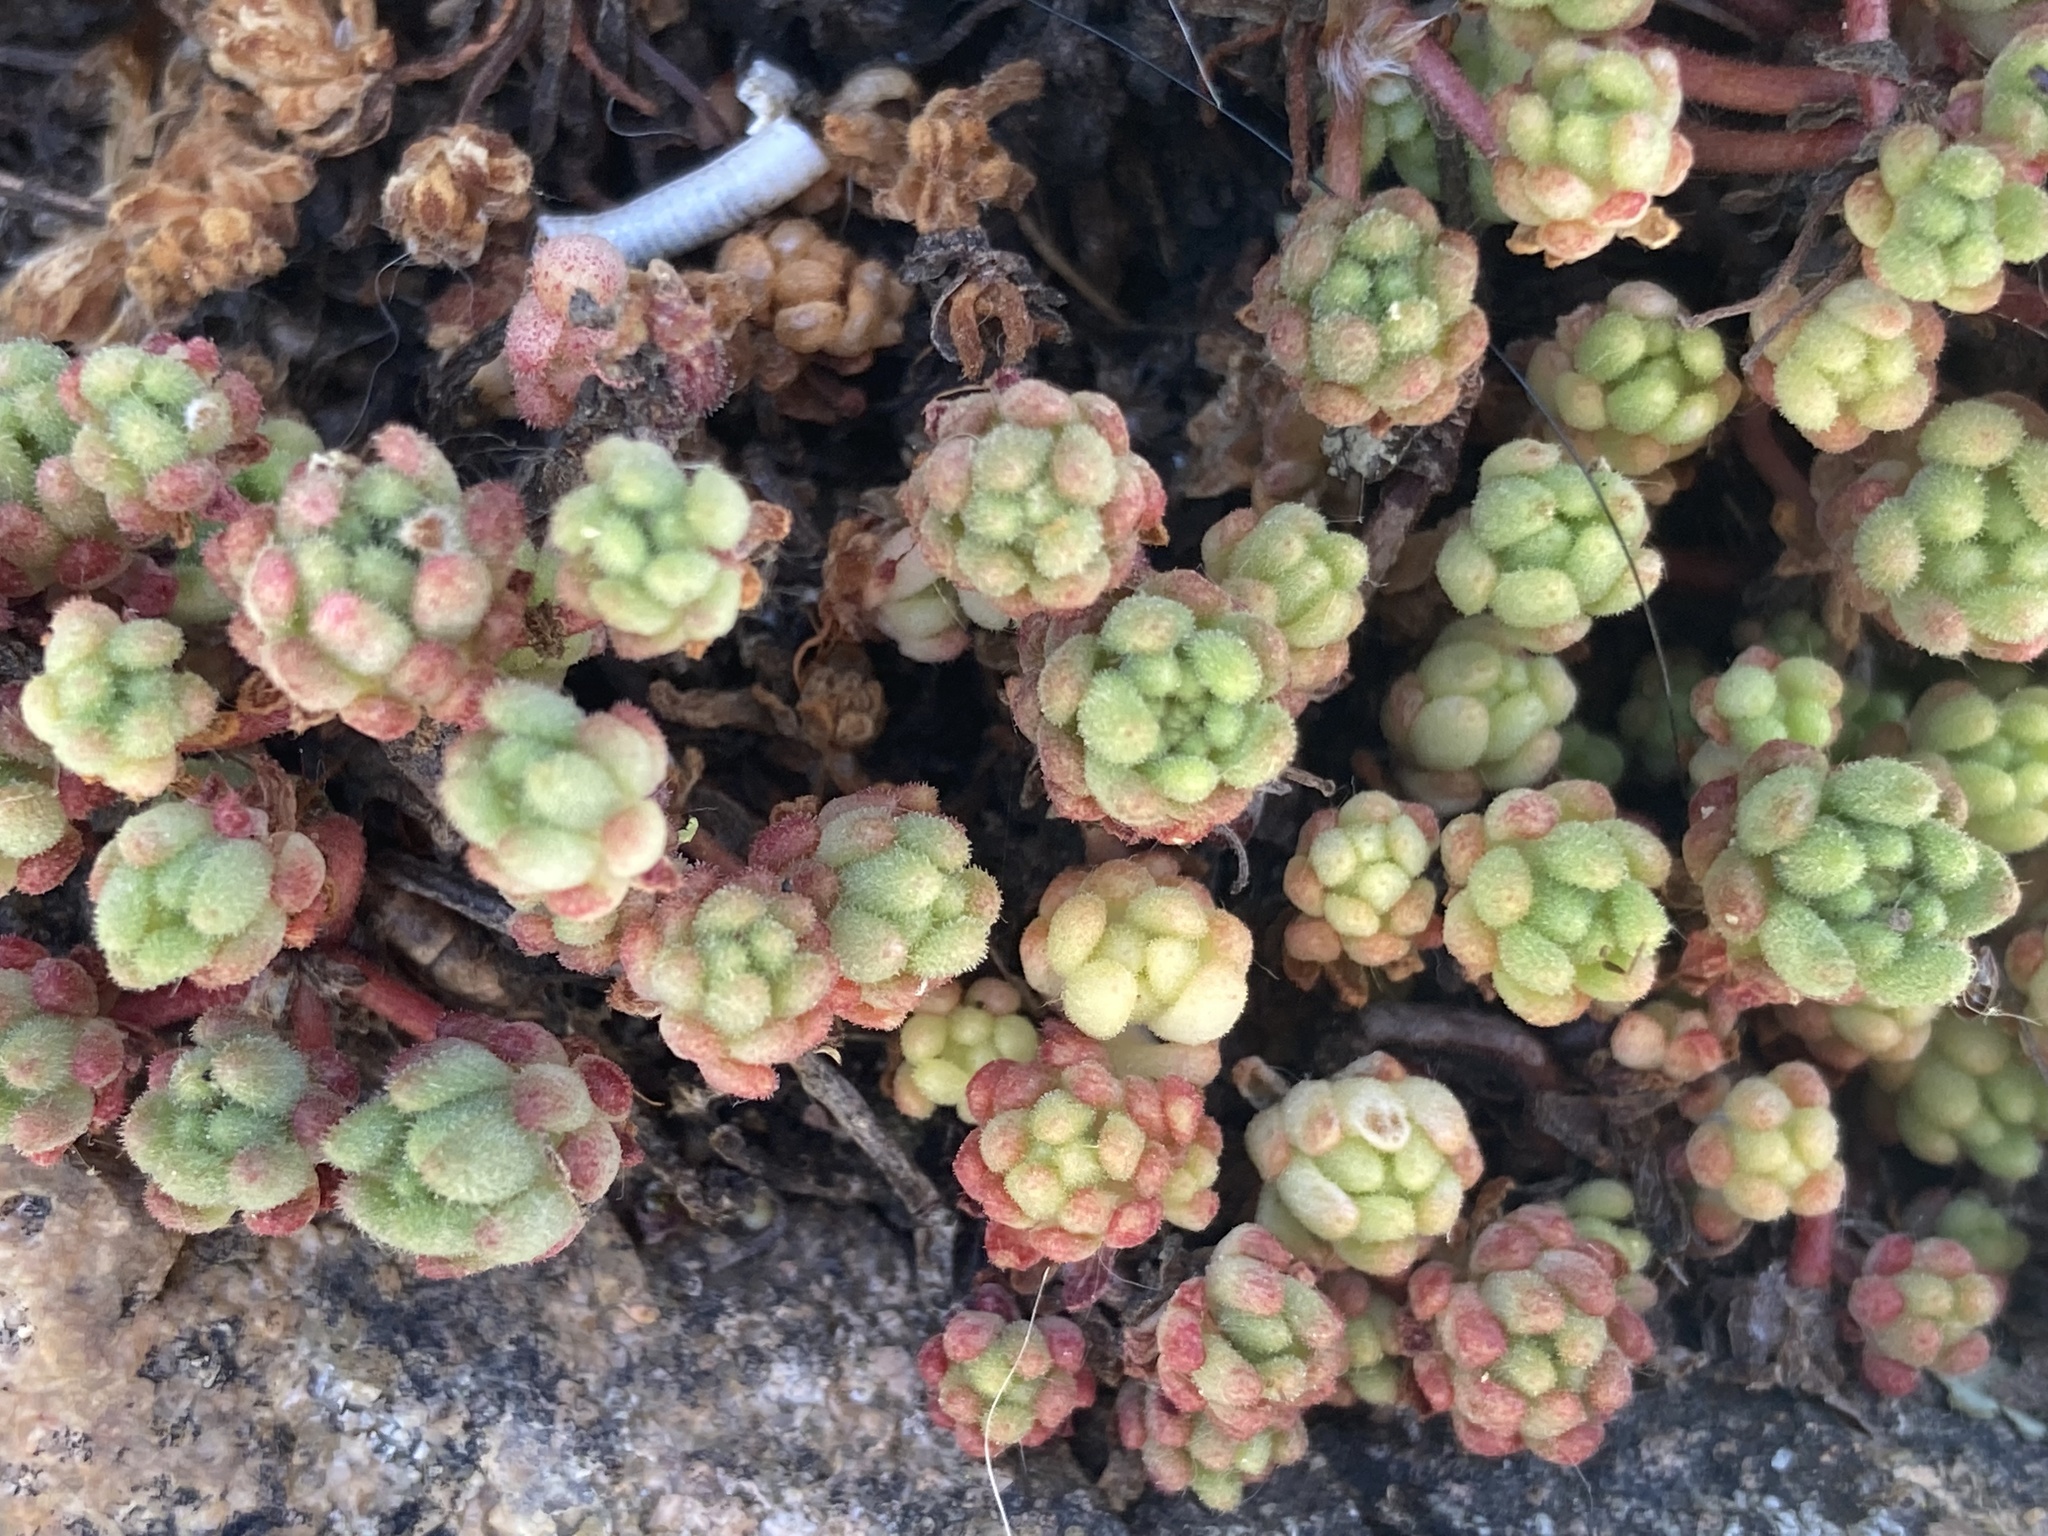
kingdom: Plantae
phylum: Tracheophyta
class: Magnoliopsida
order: Saxifragales
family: Crassulaceae
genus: Sedum
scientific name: Sedum hirsutum
